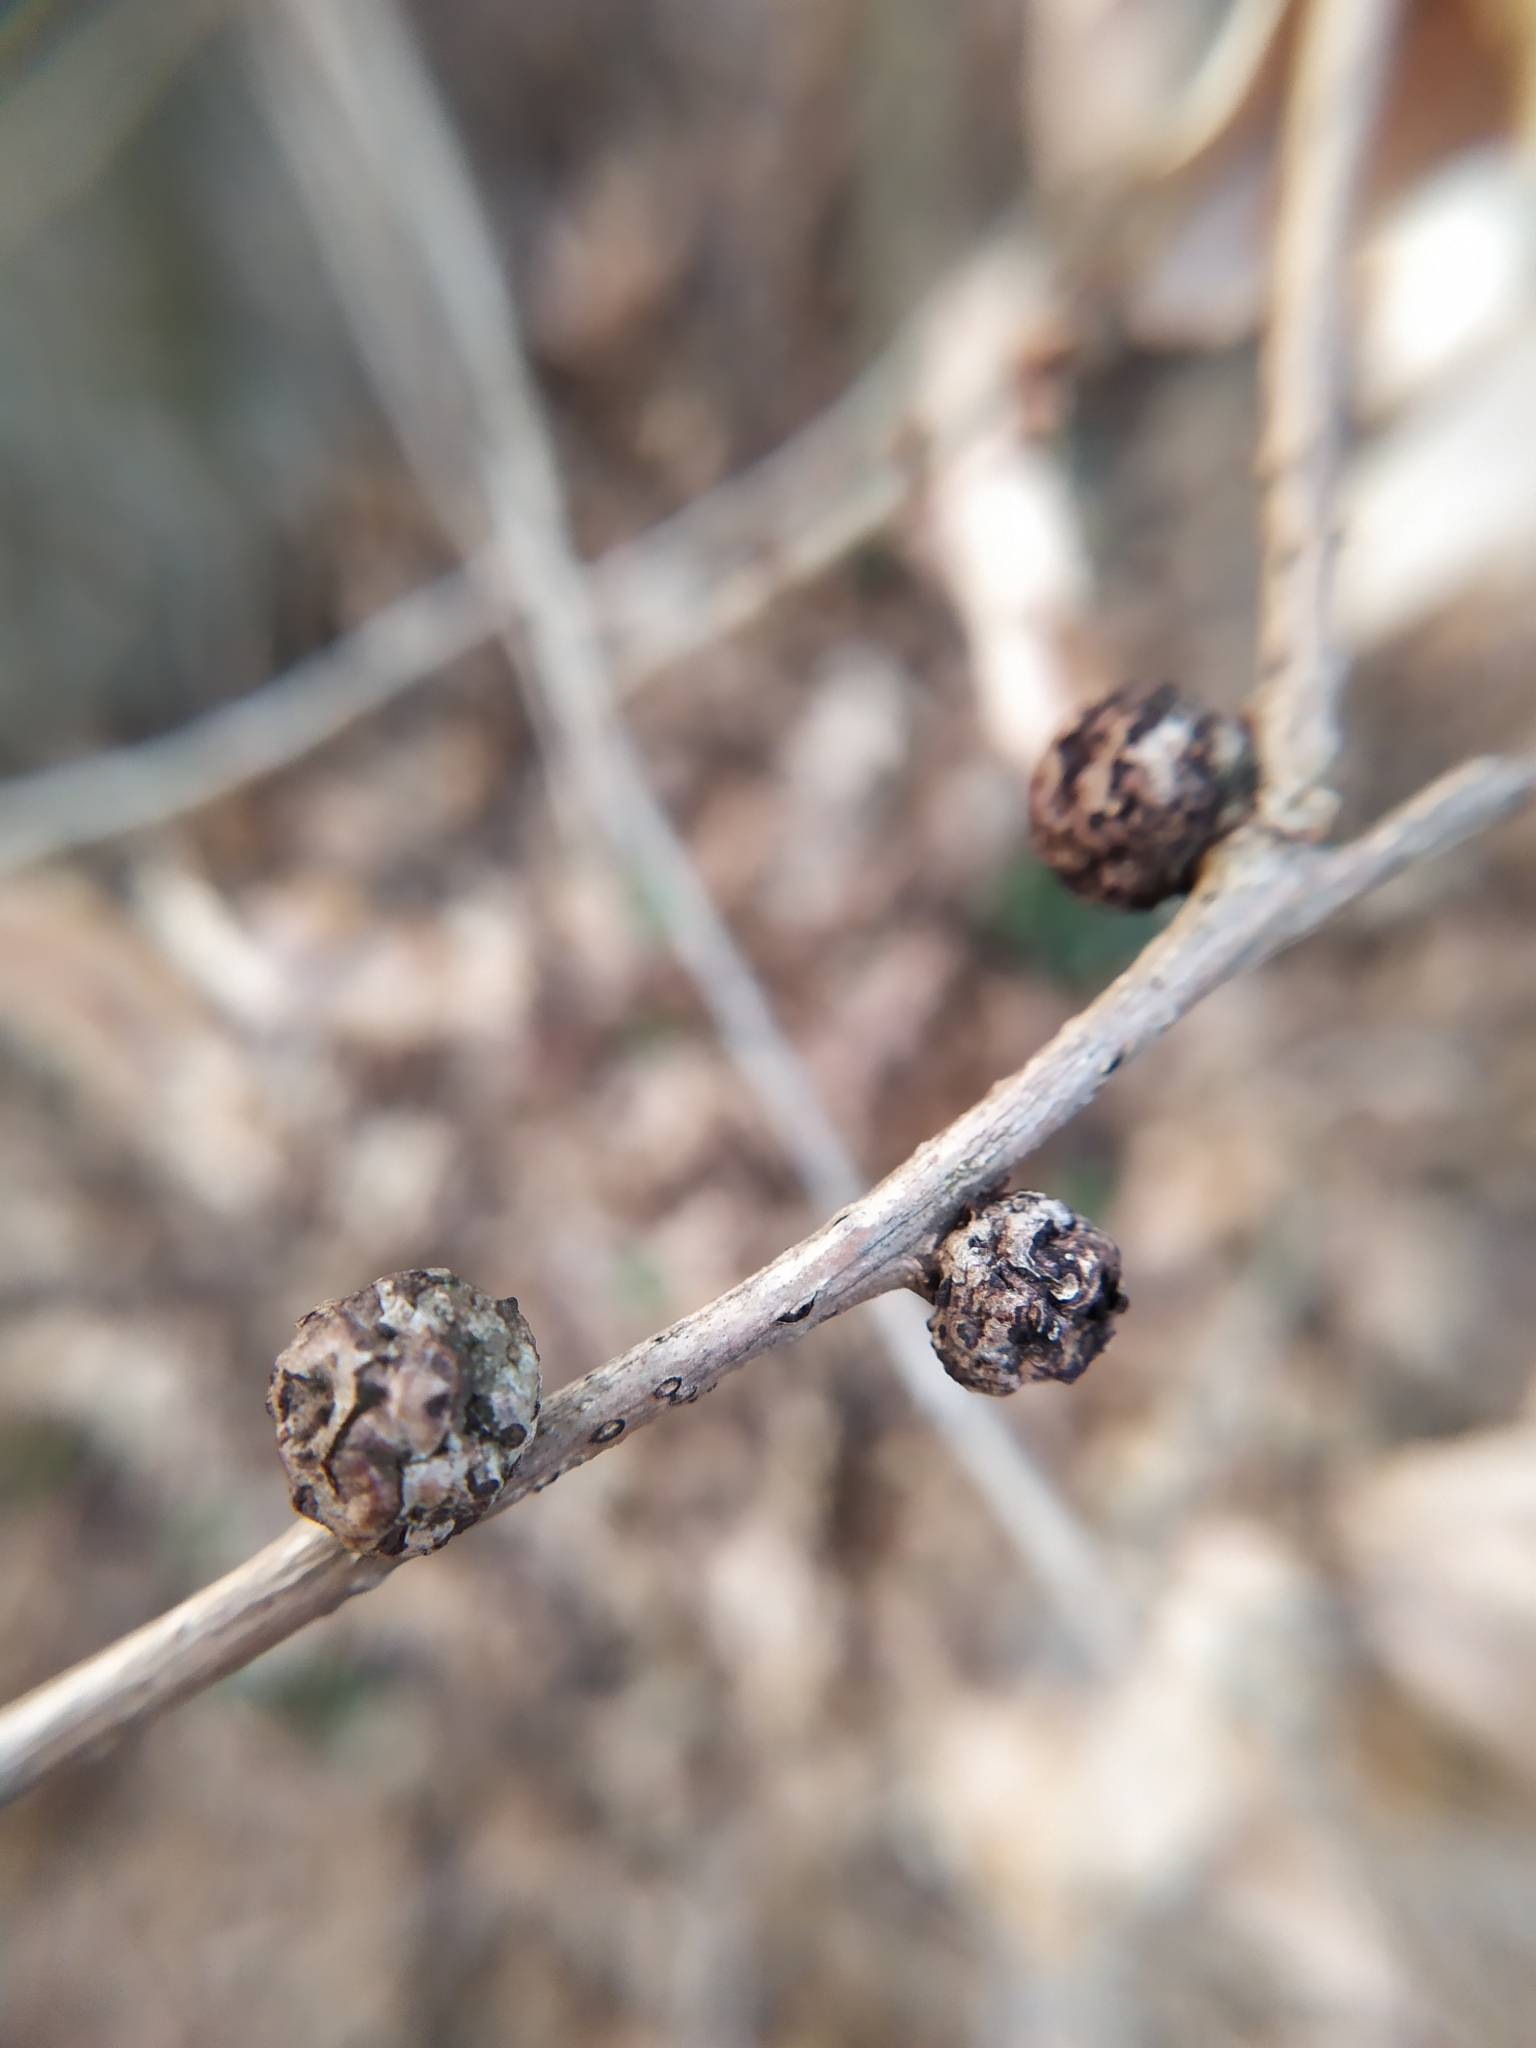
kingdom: Animalia
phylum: Arthropoda
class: Insecta
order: Hymenoptera
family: Cynipidae
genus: Andricus
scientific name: Andricus lignicolus
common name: Cola-nut gall
